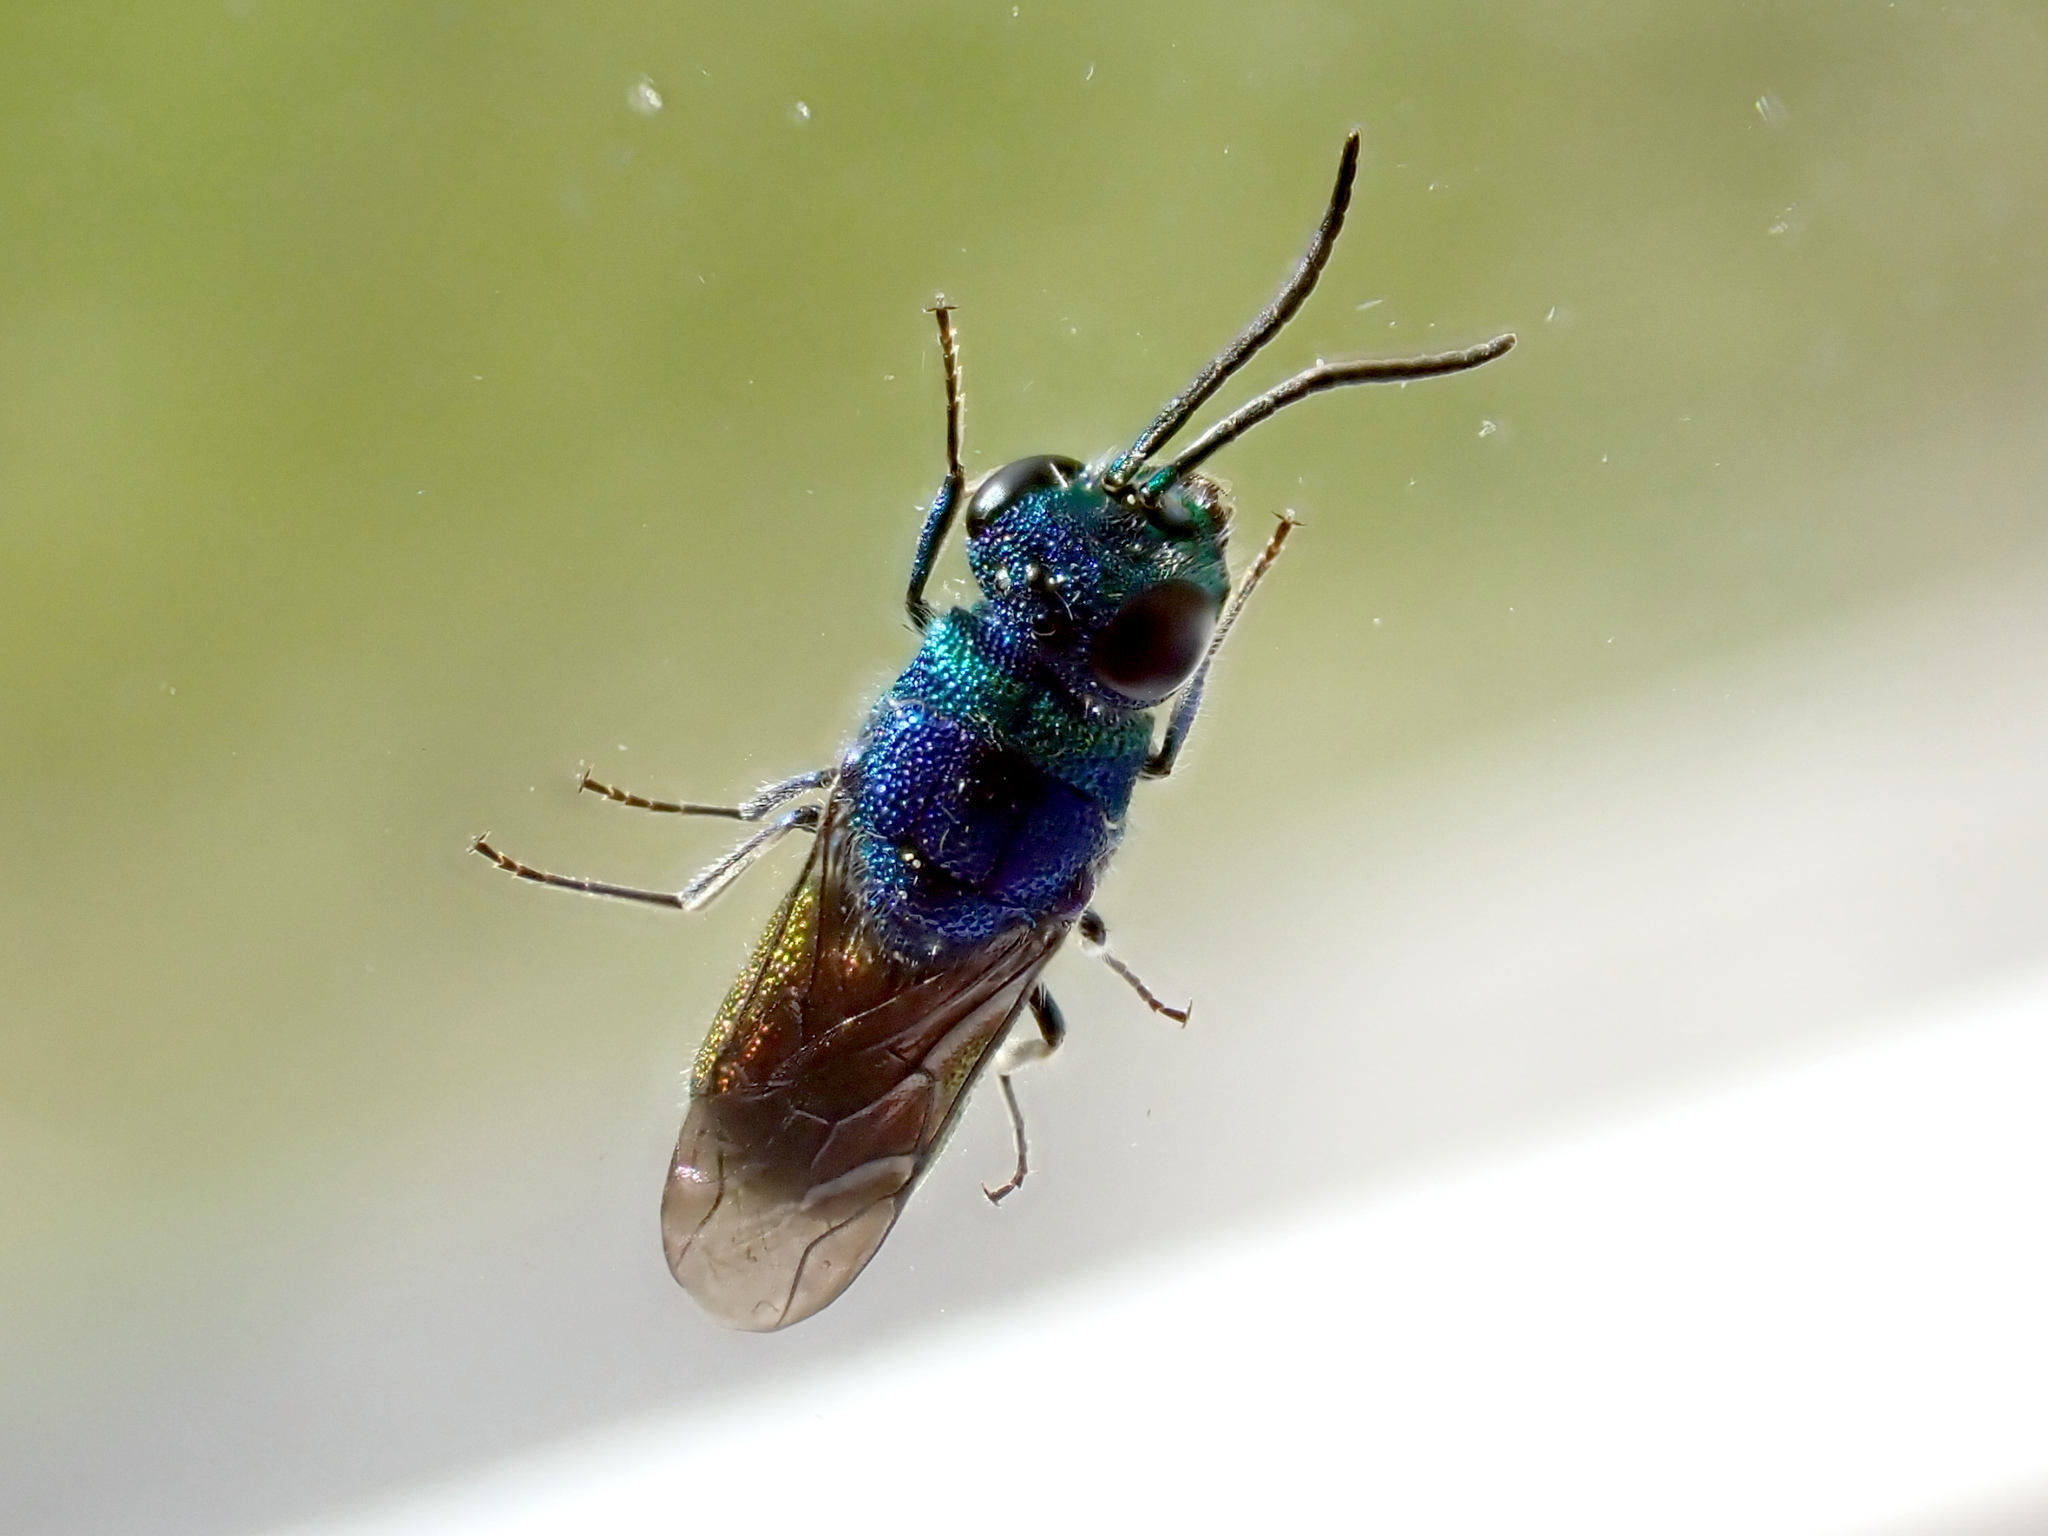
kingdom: Animalia
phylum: Arthropoda
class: Insecta
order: Hymenoptera
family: Chrysididae
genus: Chrysis
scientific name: Chrysis terminata
